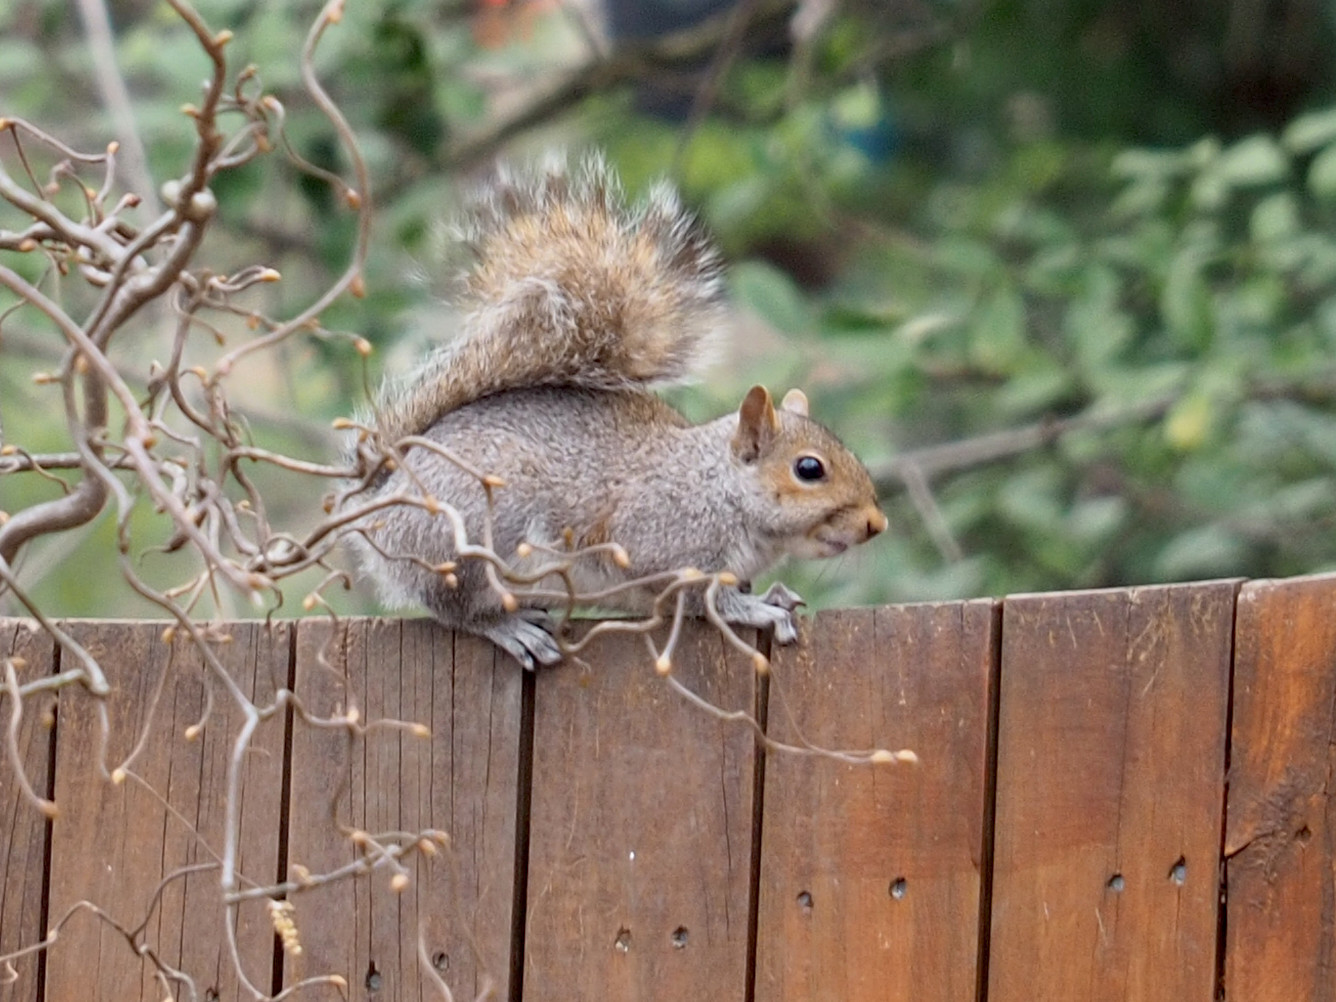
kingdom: Animalia
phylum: Chordata
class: Mammalia
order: Rodentia
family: Sciuridae
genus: Sciurus
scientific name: Sciurus carolinensis
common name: Eastern gray squirrel
